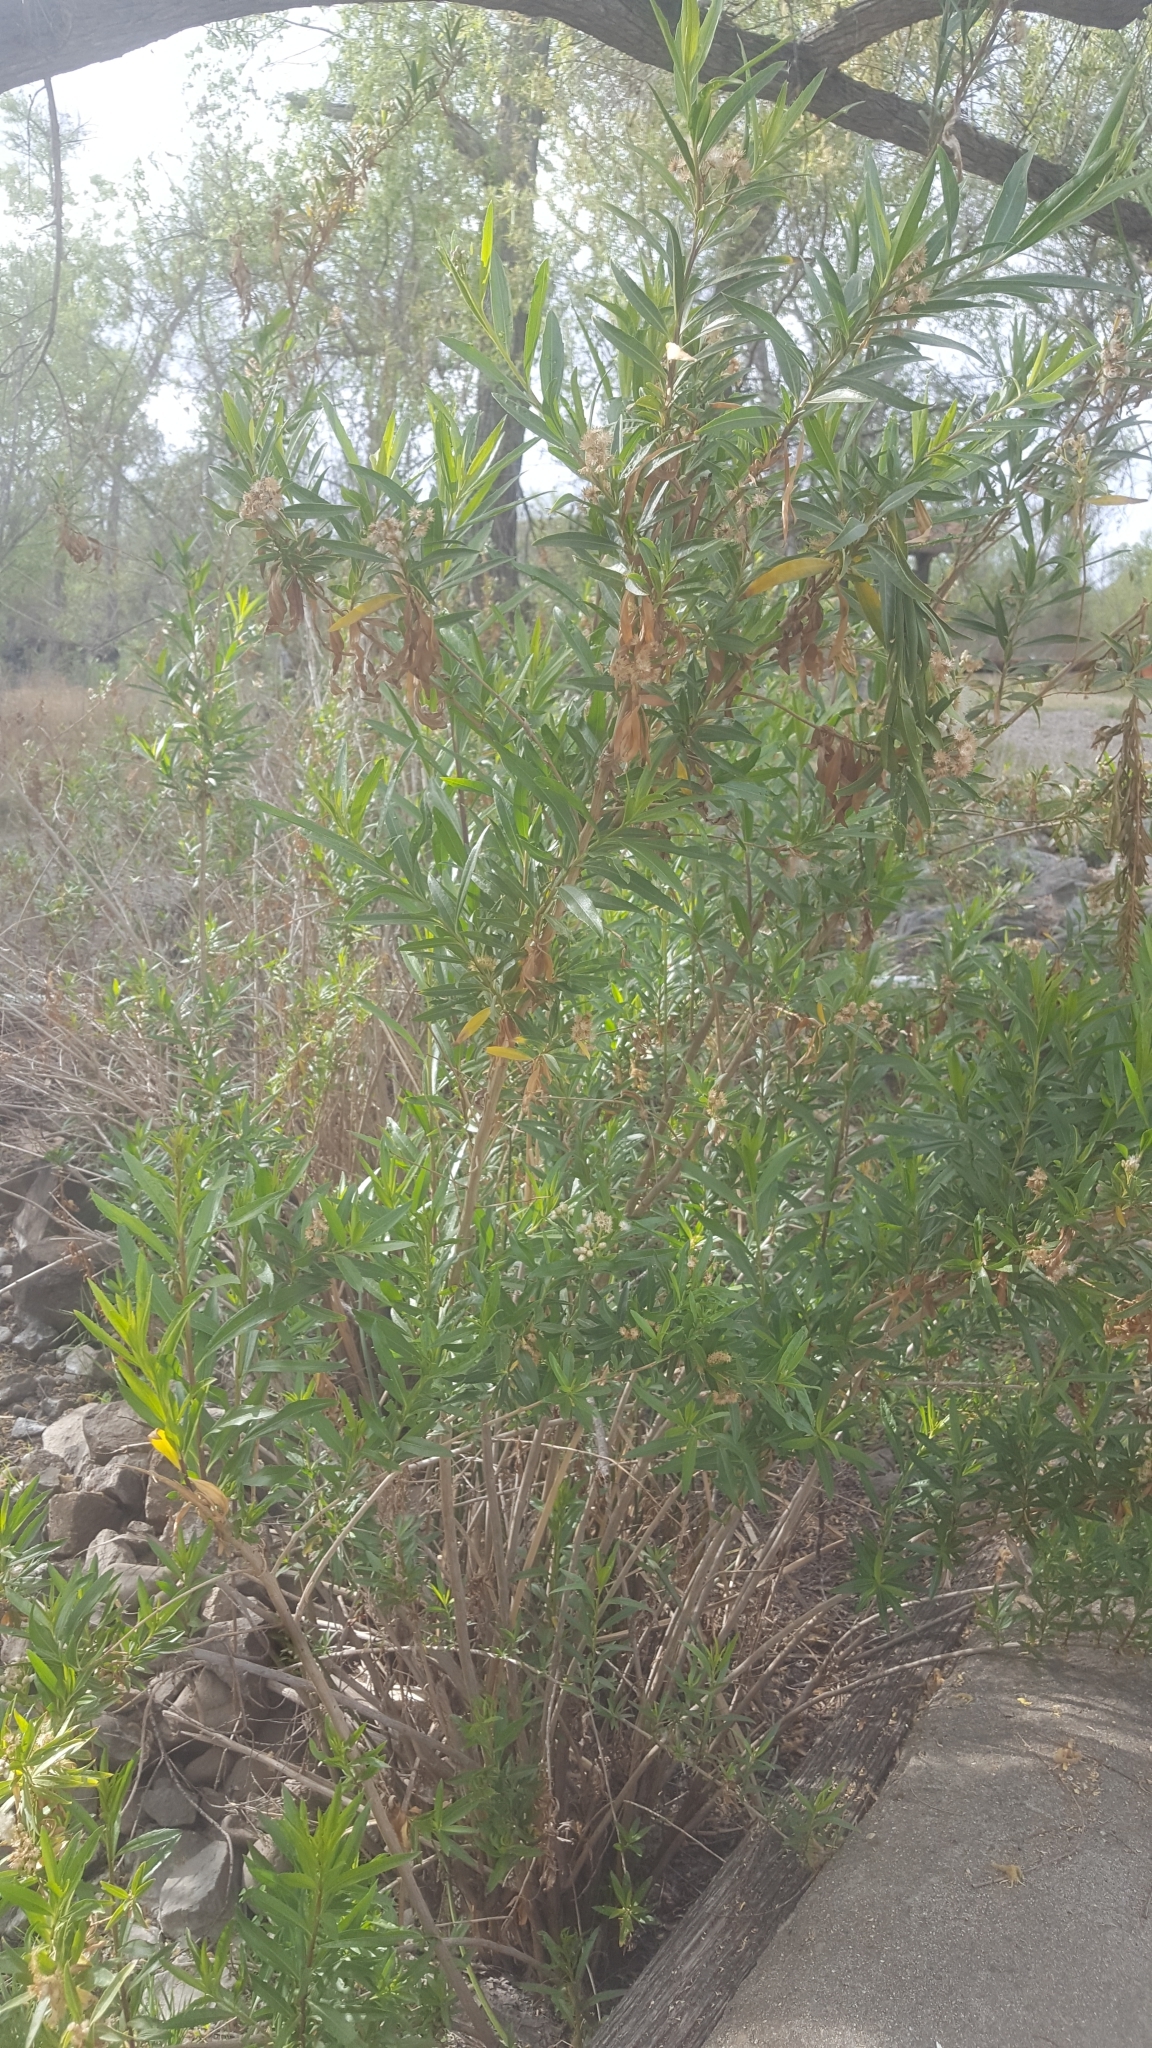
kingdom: Plantae
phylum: Tracheophyta
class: Magnoliopsida
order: Asterales
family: Asteraceae
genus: Baccharis
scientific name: Baccharis salicifolia
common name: Sticky baccharis
